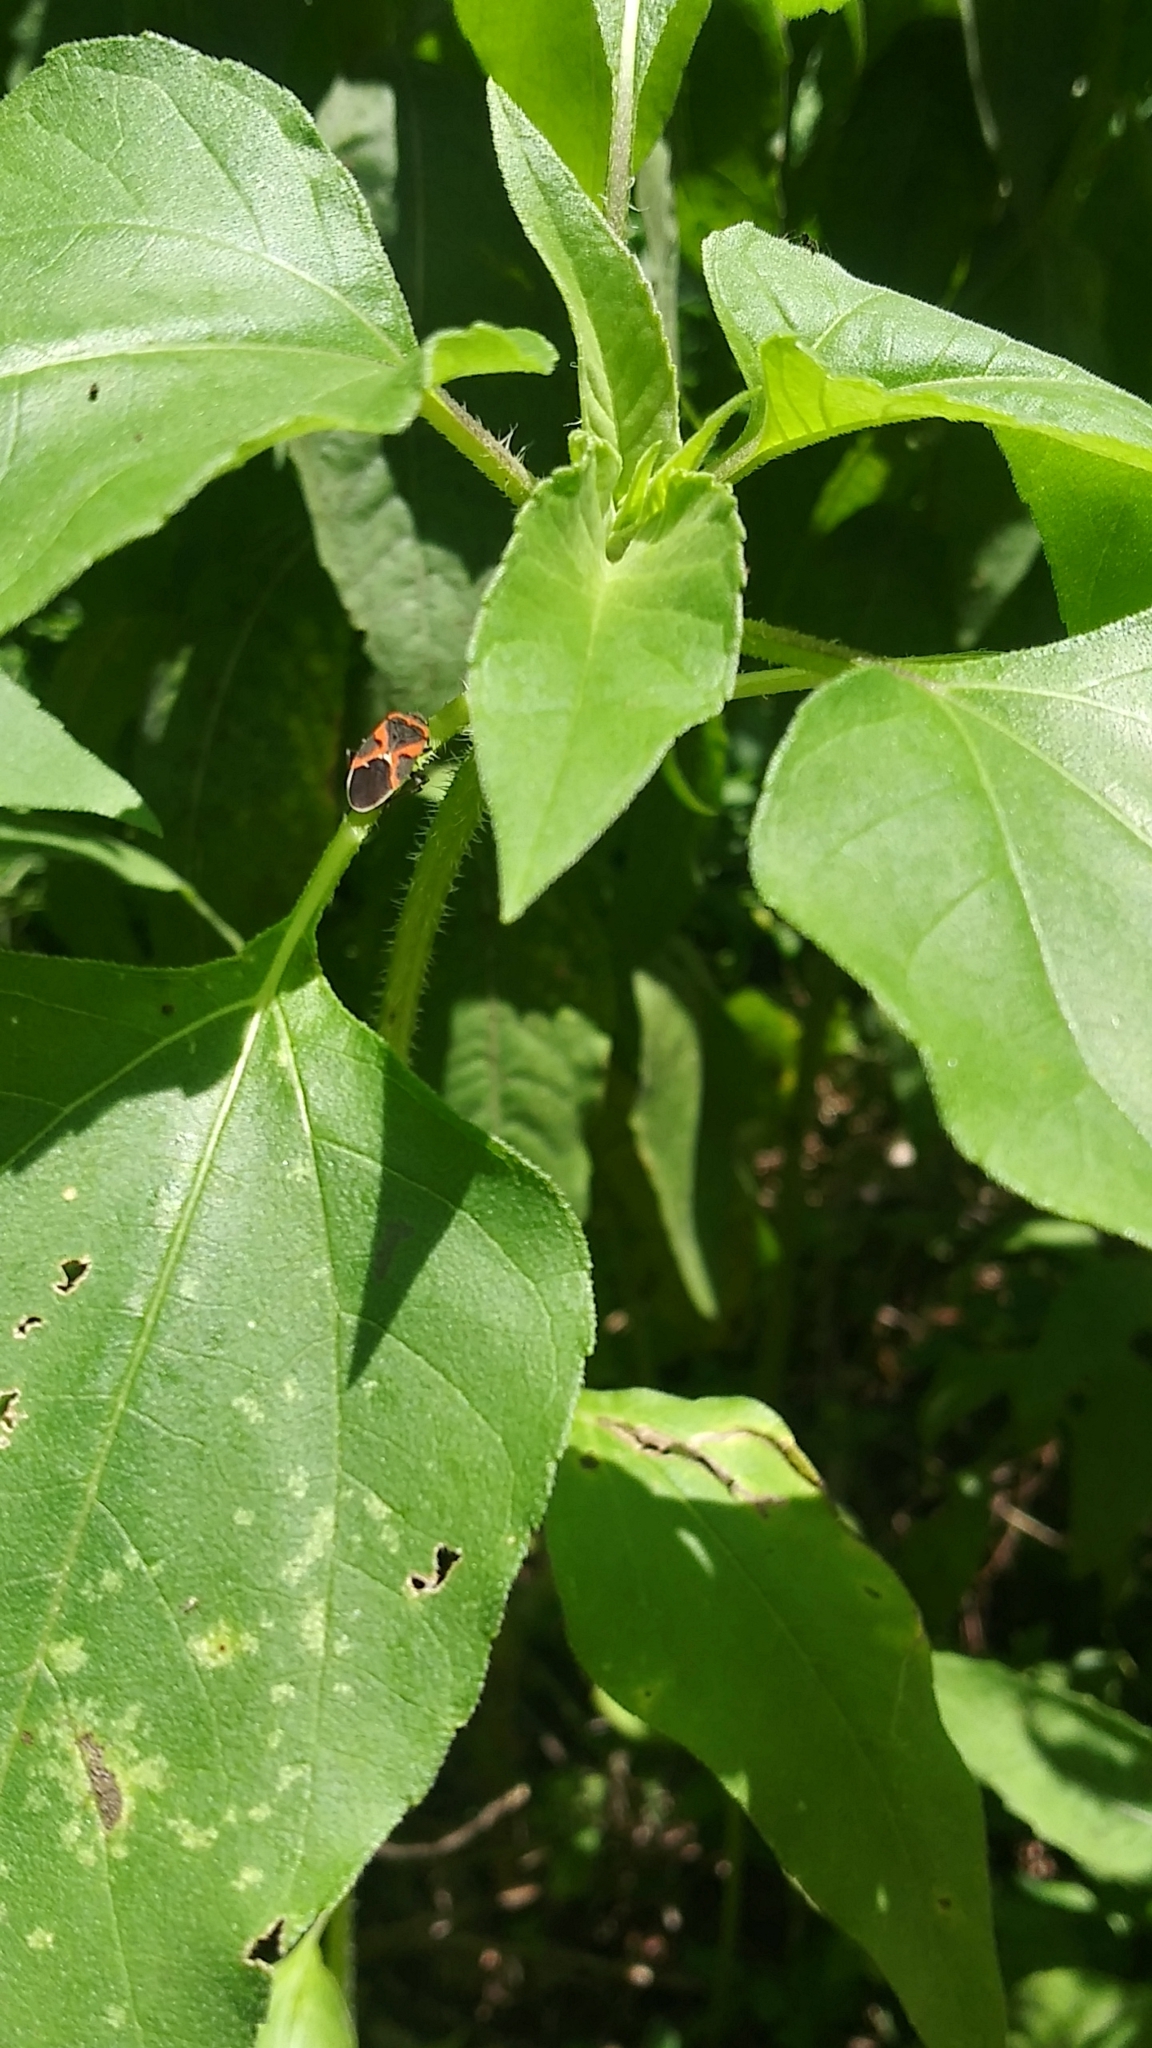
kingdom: Animalia
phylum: Arthropoda
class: Insecta
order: Hemiptera
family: Lygaeidae
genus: Lygaeus
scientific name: Lygaeus kalmii
